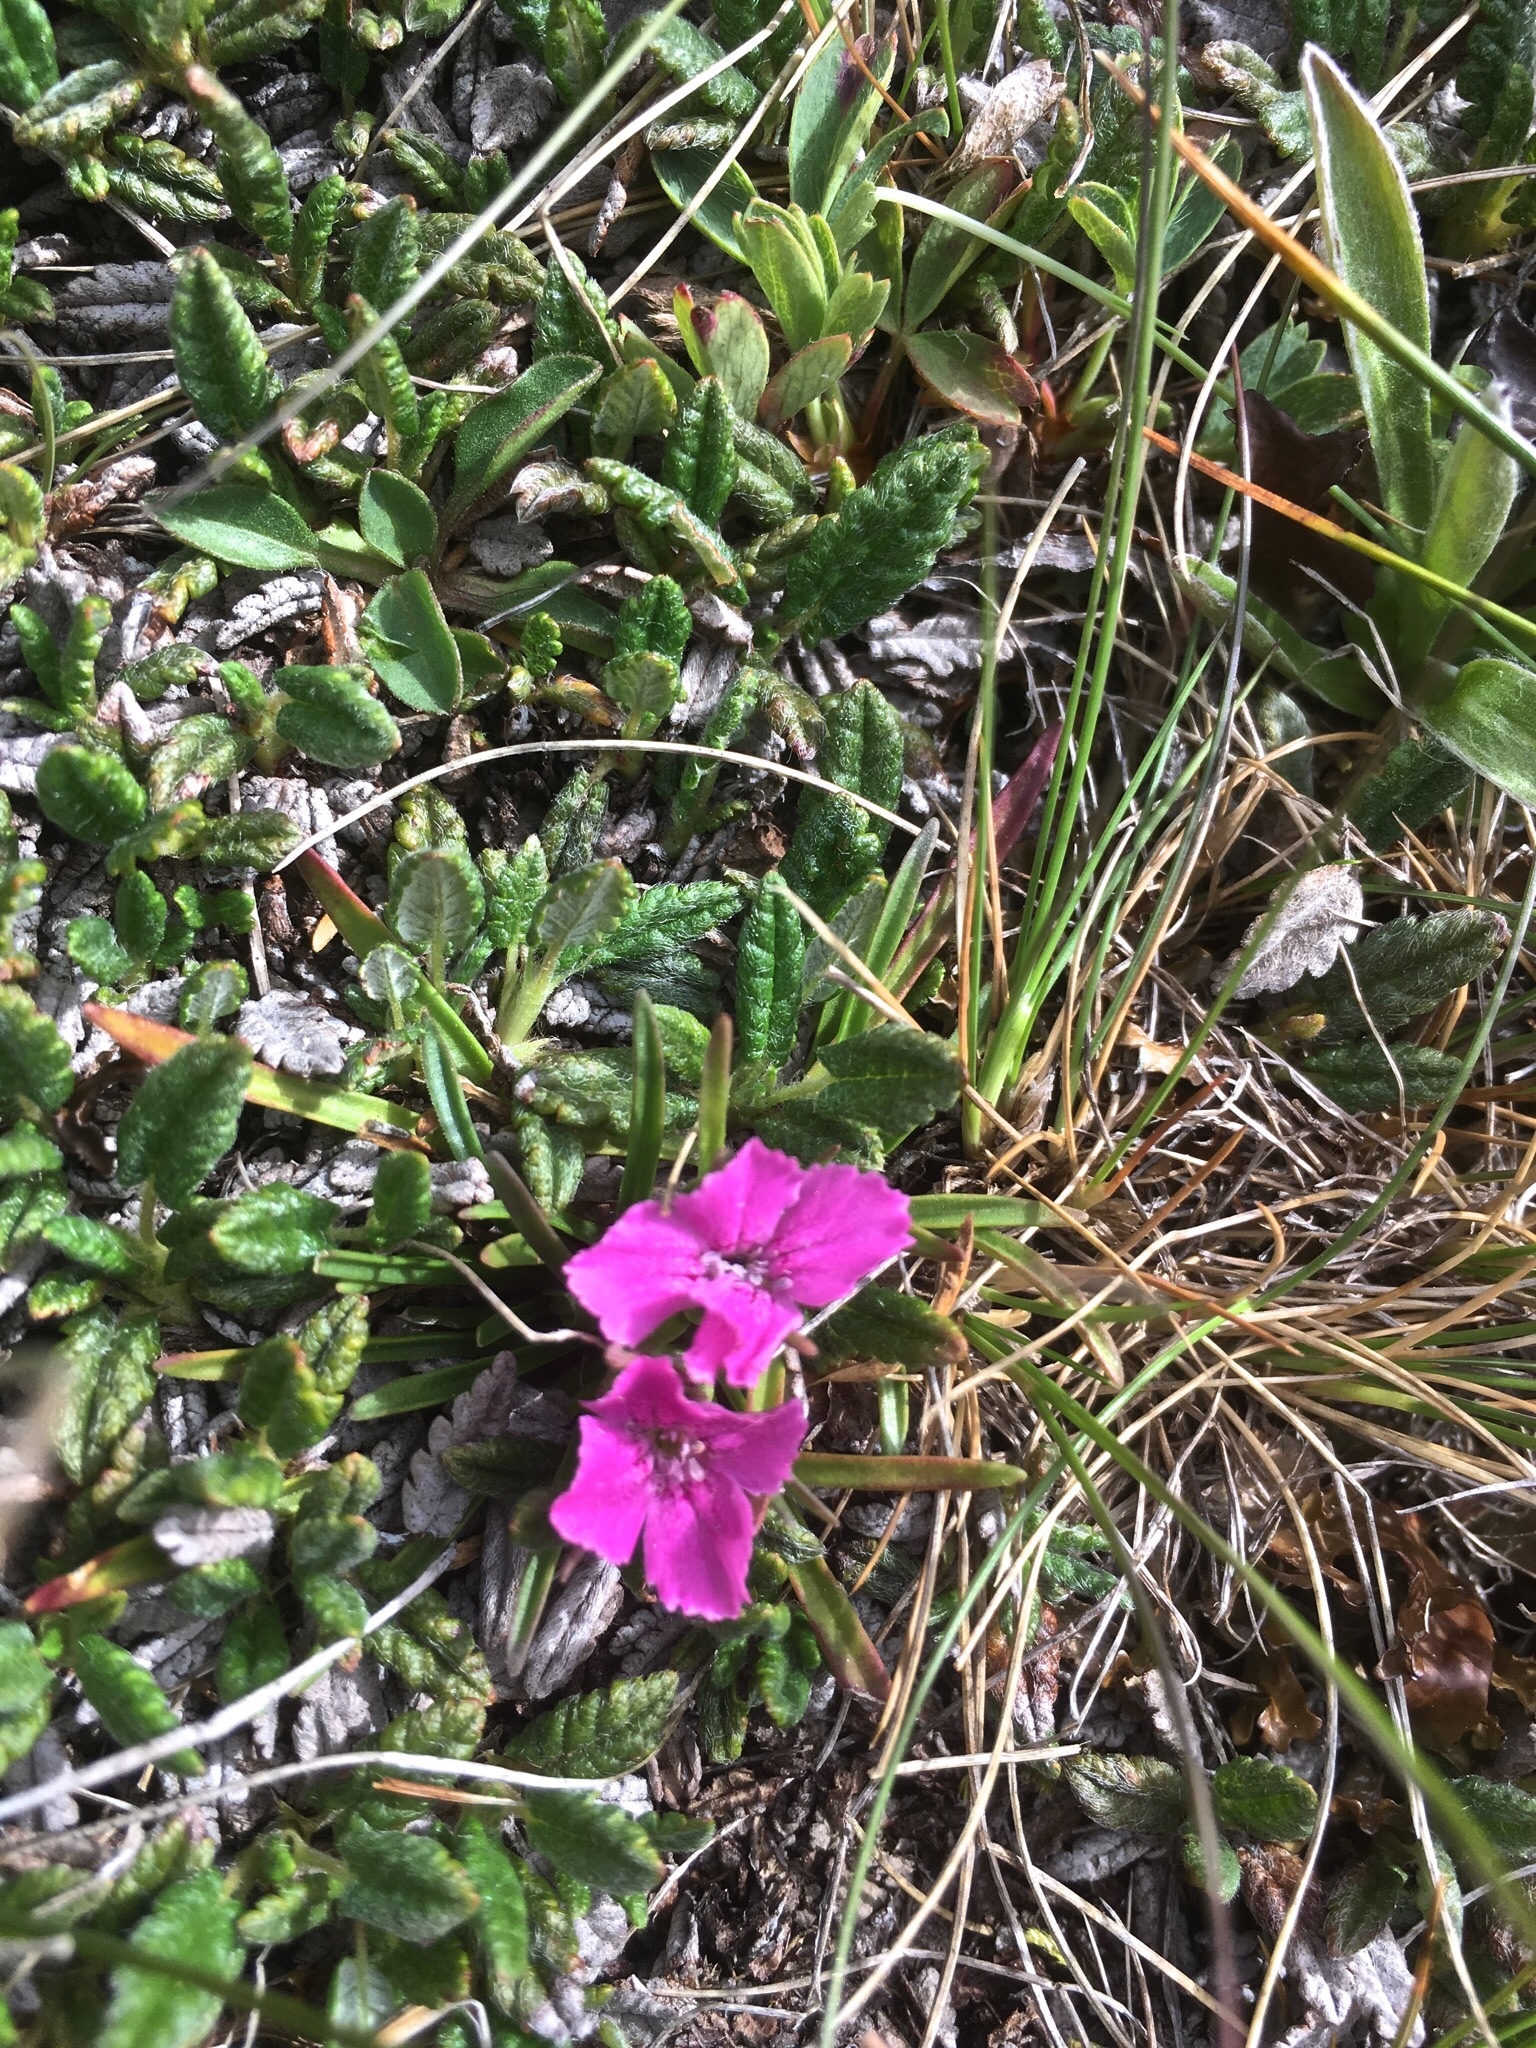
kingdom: Plantae
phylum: Tracheophyta
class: Magnoliopsida
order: Caryophyllales
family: Caryophyllaceae
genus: Dianthus
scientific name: Dianthus glacialis
